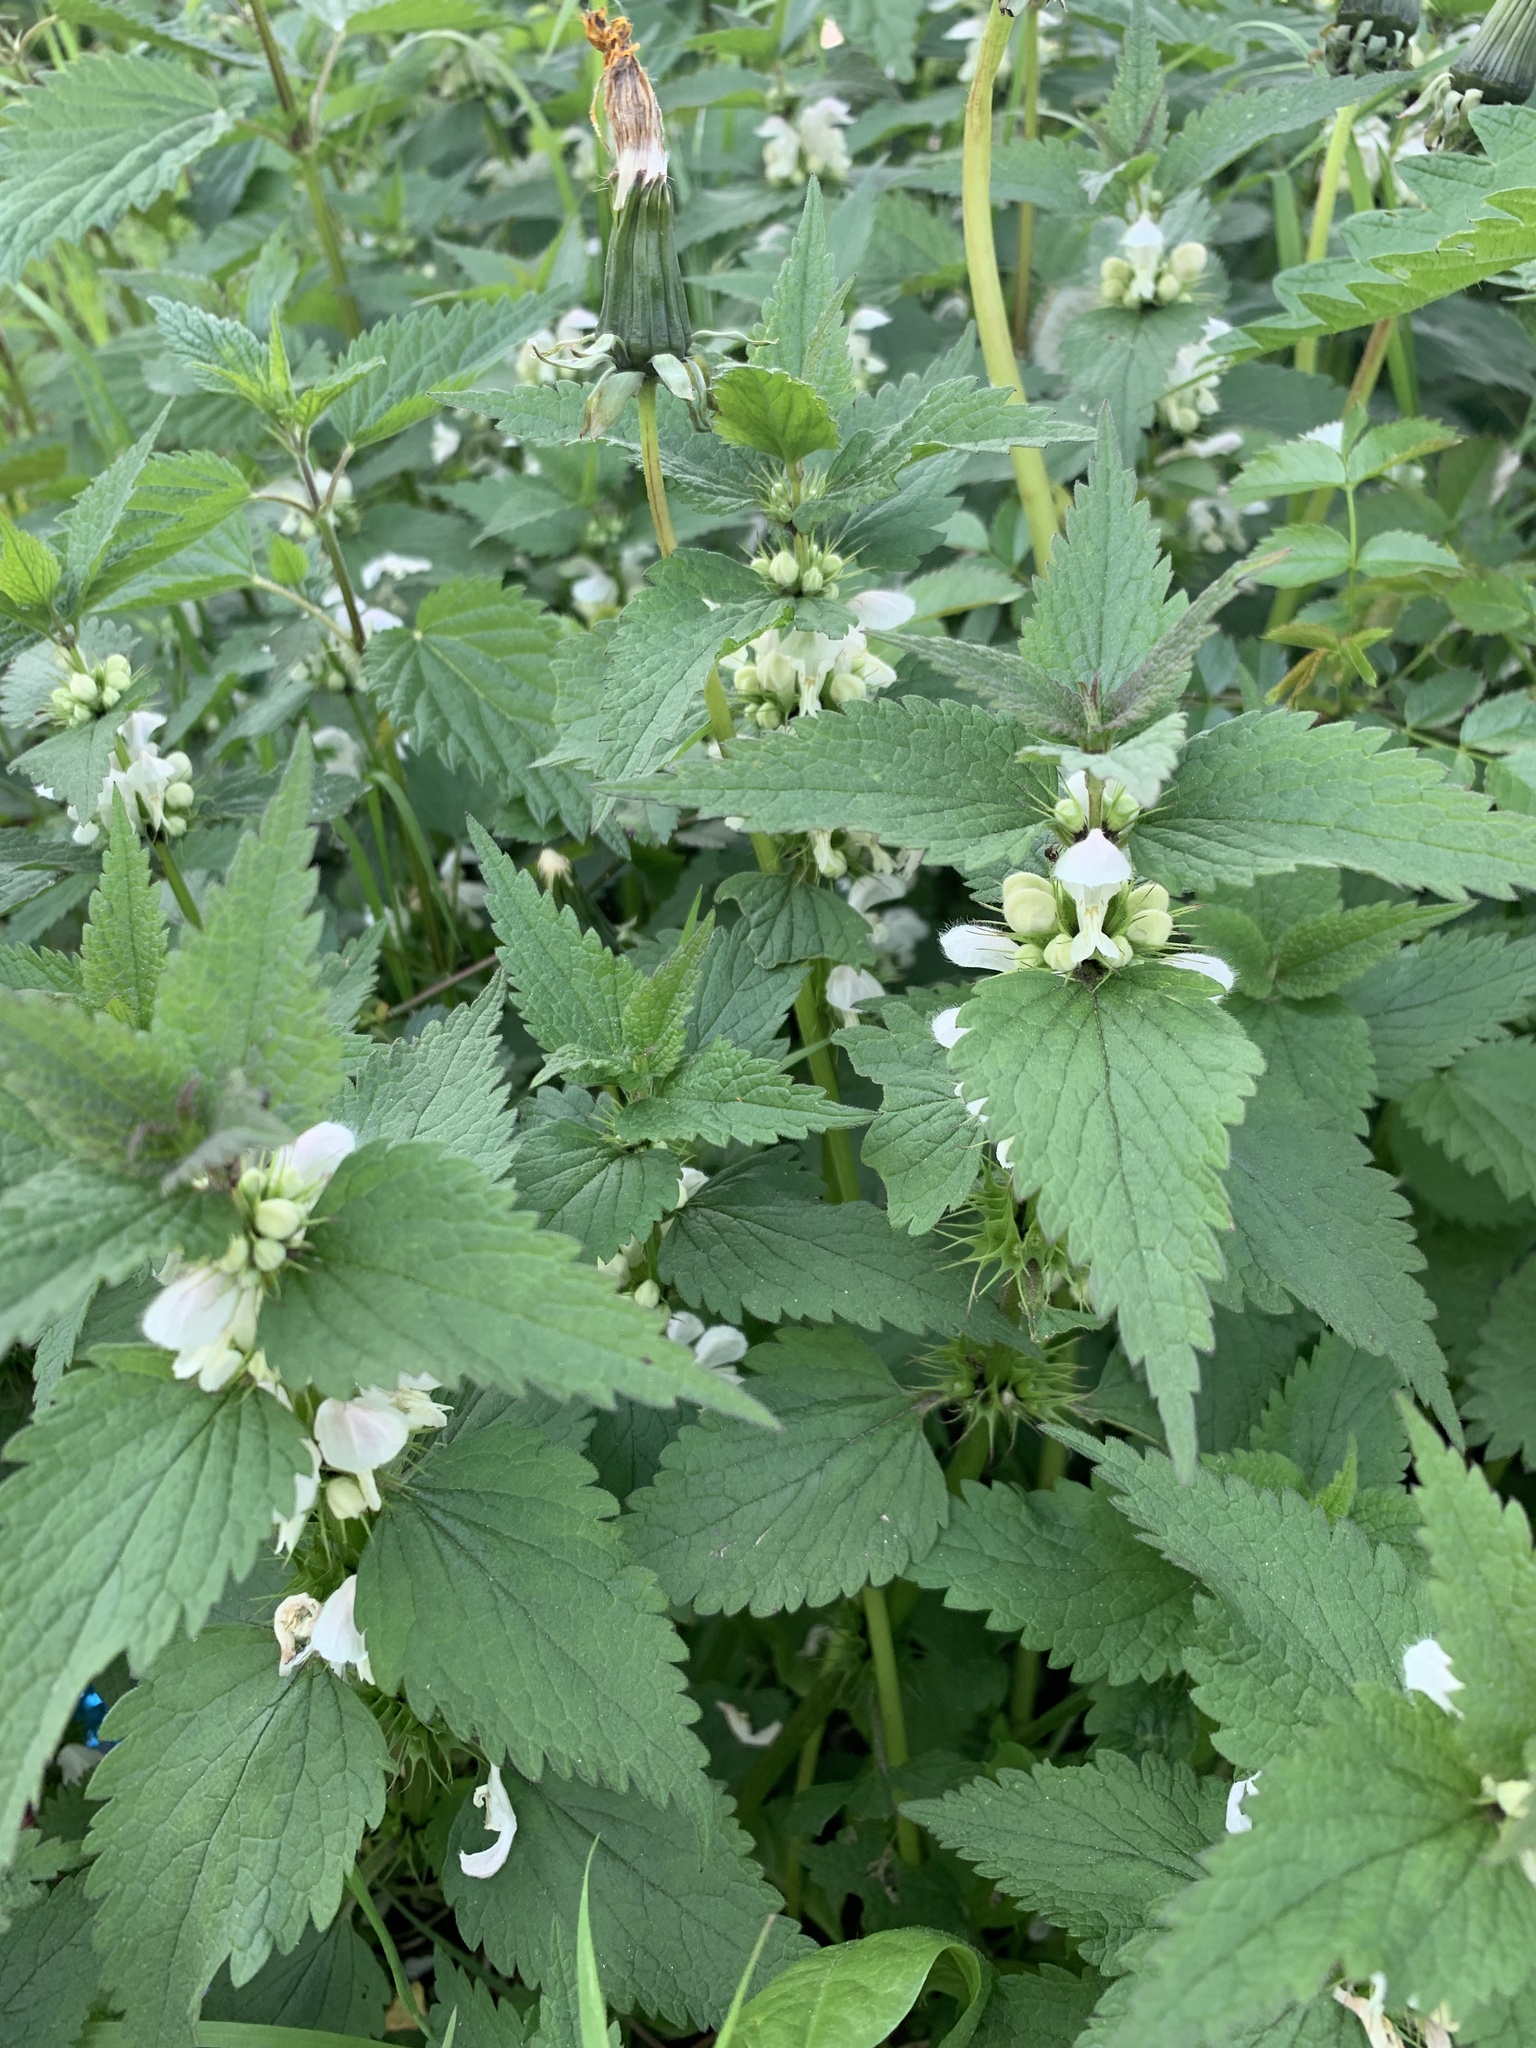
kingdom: Plantae
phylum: Tracheophyta
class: Magnoliopsida
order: Lamiales
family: Lamiaceae
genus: Lamium
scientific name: Lamium album
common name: White dead-nettle
